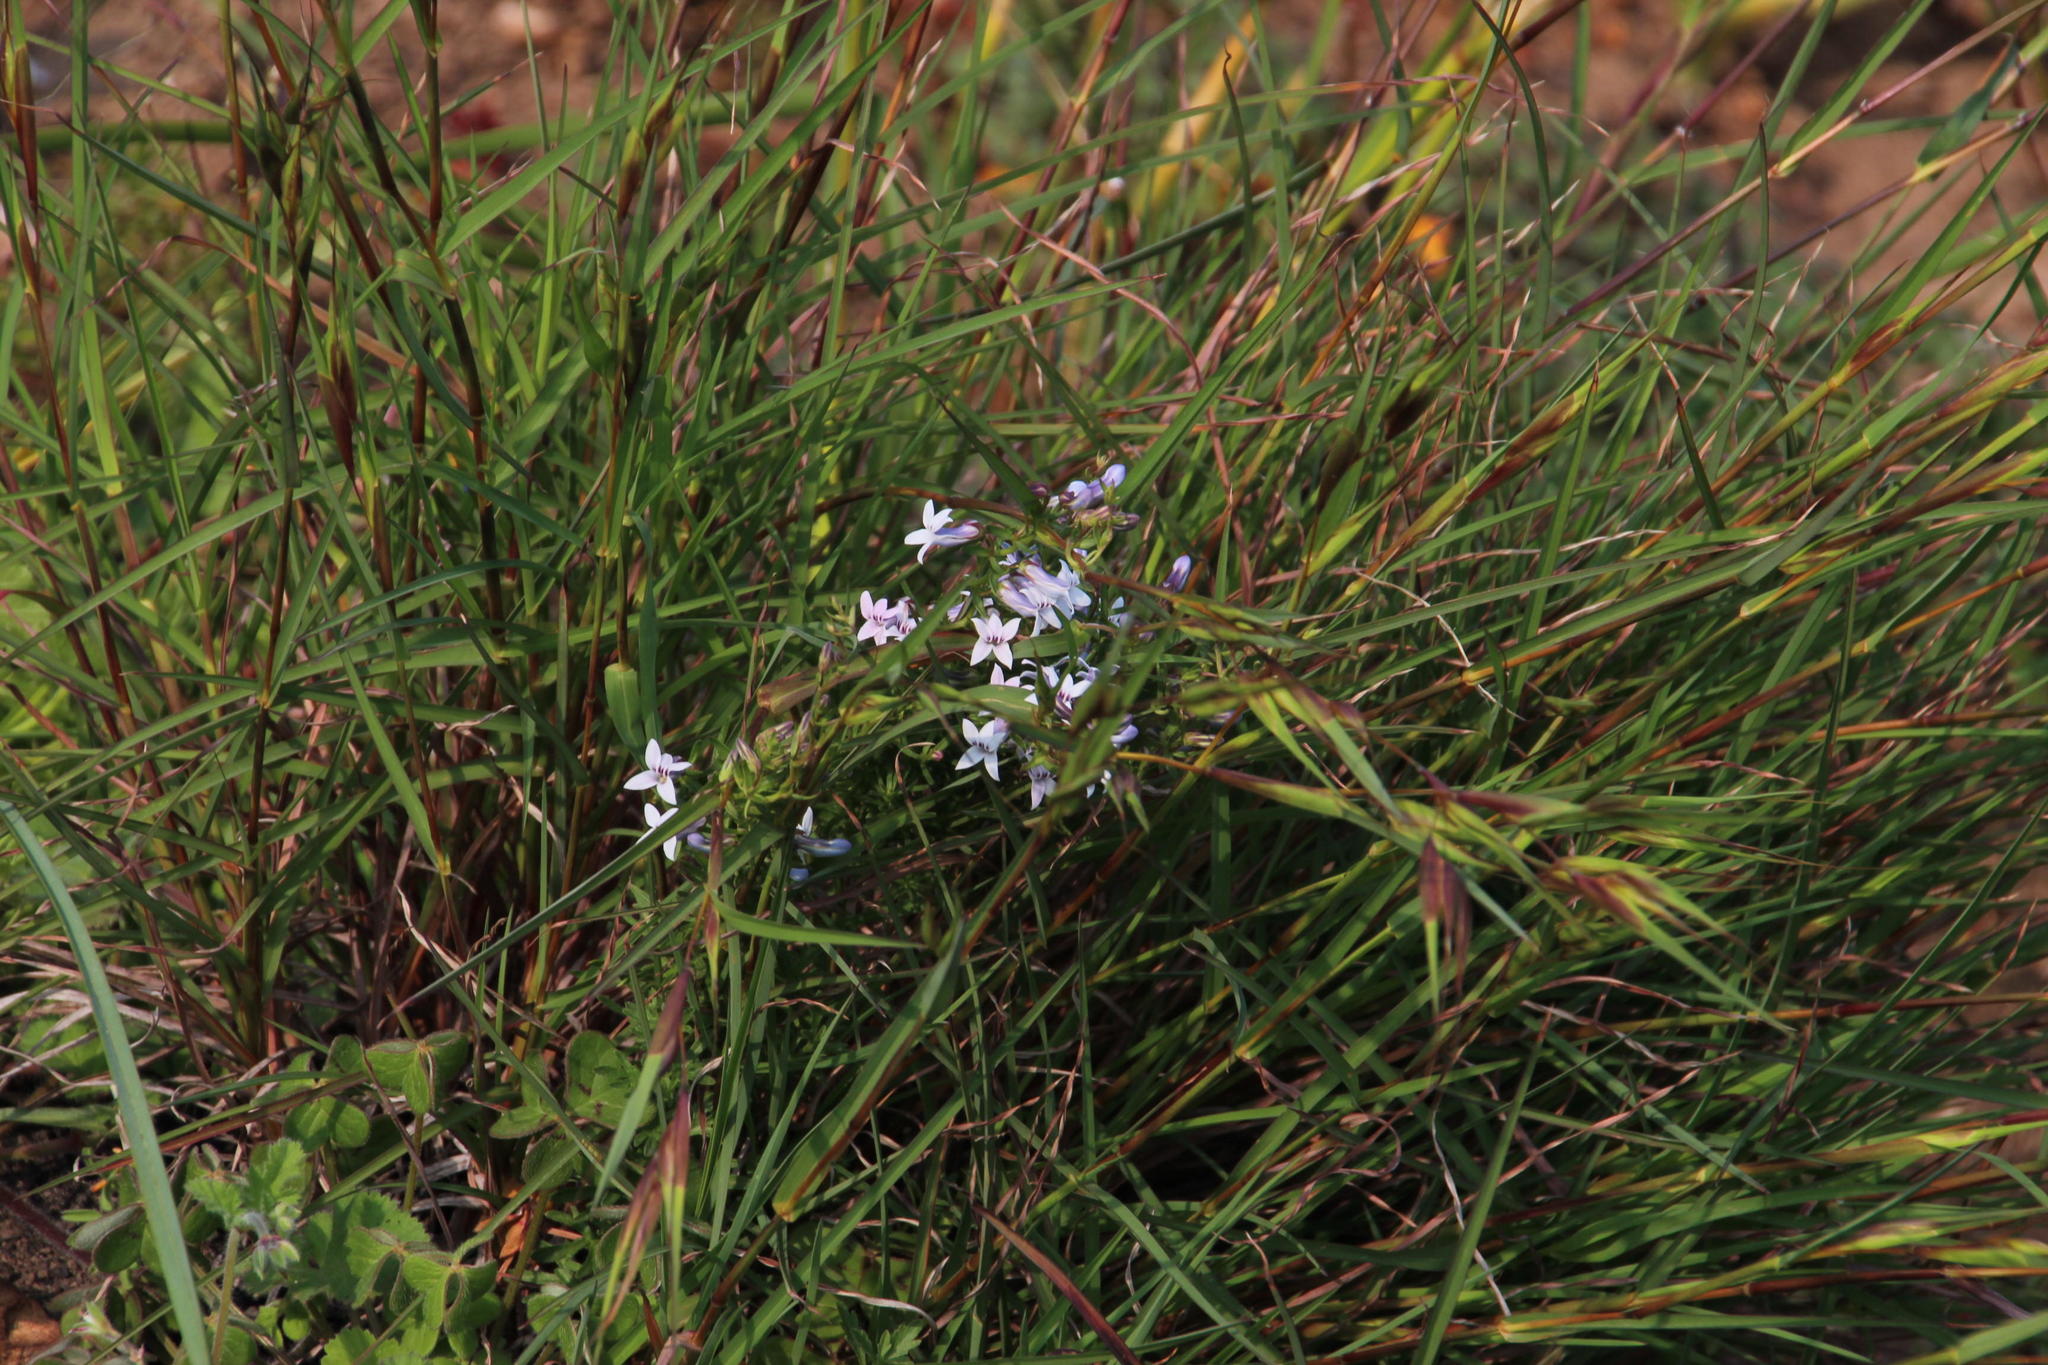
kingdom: Plantae
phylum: Tracheophyta
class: Magnoliopsida
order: Asterales
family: Campanulaceae
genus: Cyphia
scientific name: Cyphia digitata
